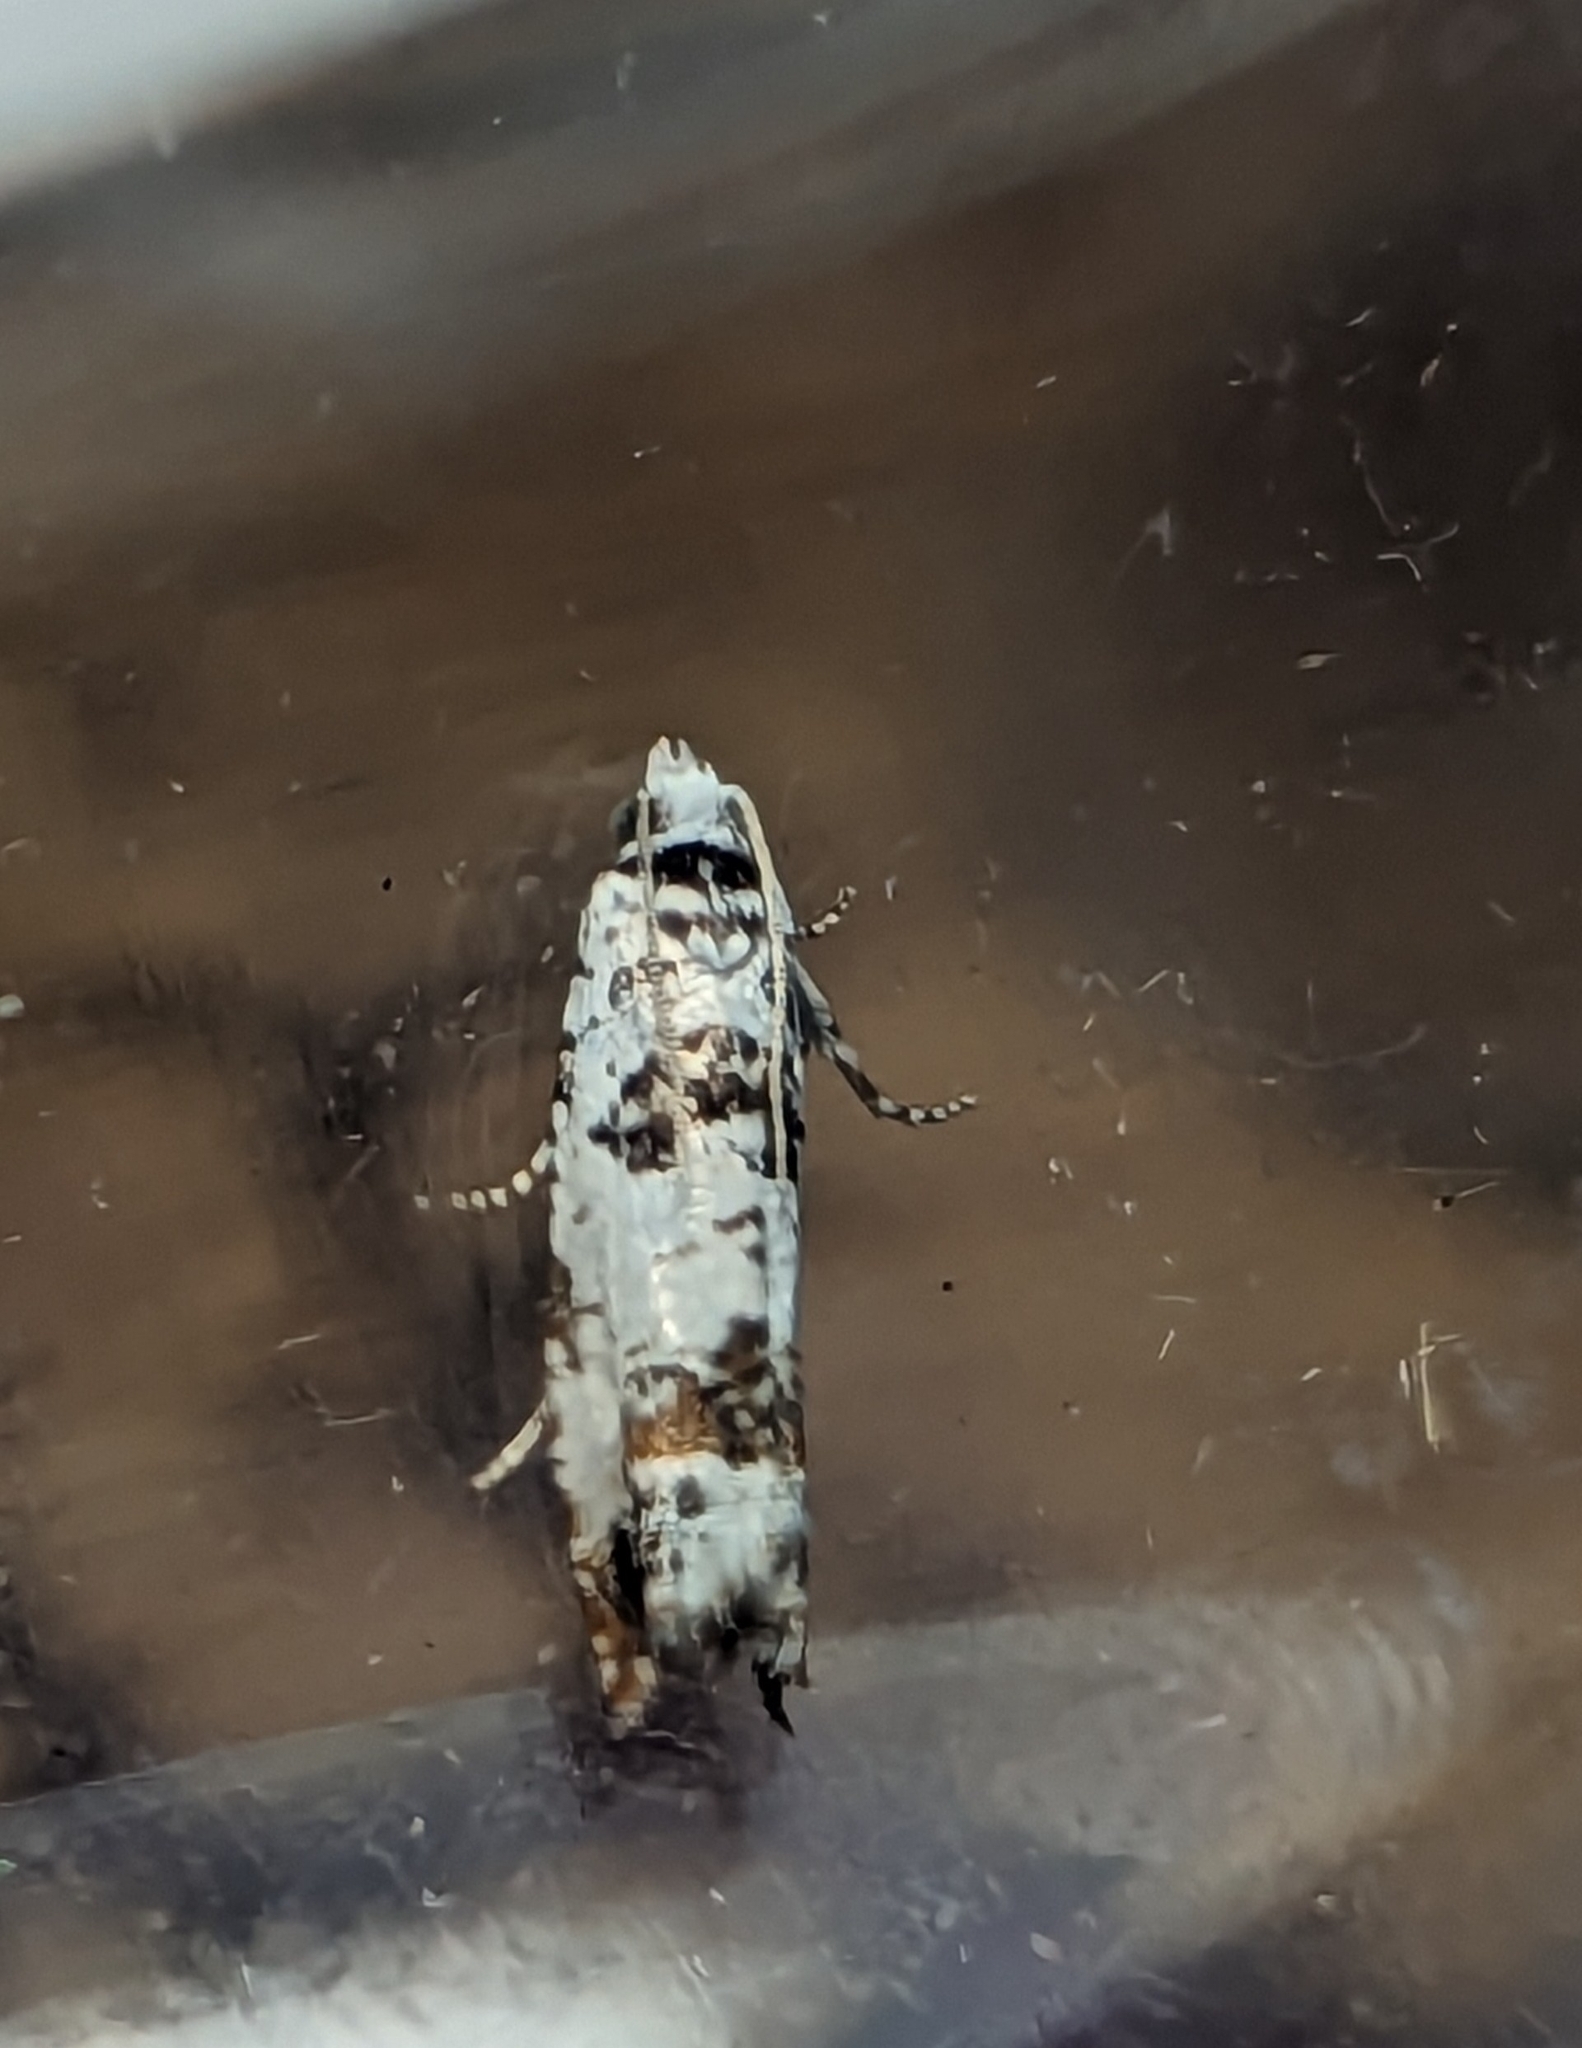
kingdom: Animalia
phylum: Arthropoda
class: Insecta
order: Lepidoptera
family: Tortricidae
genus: Eucosma
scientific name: Eucosma campoliliana
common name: Marbled bell
